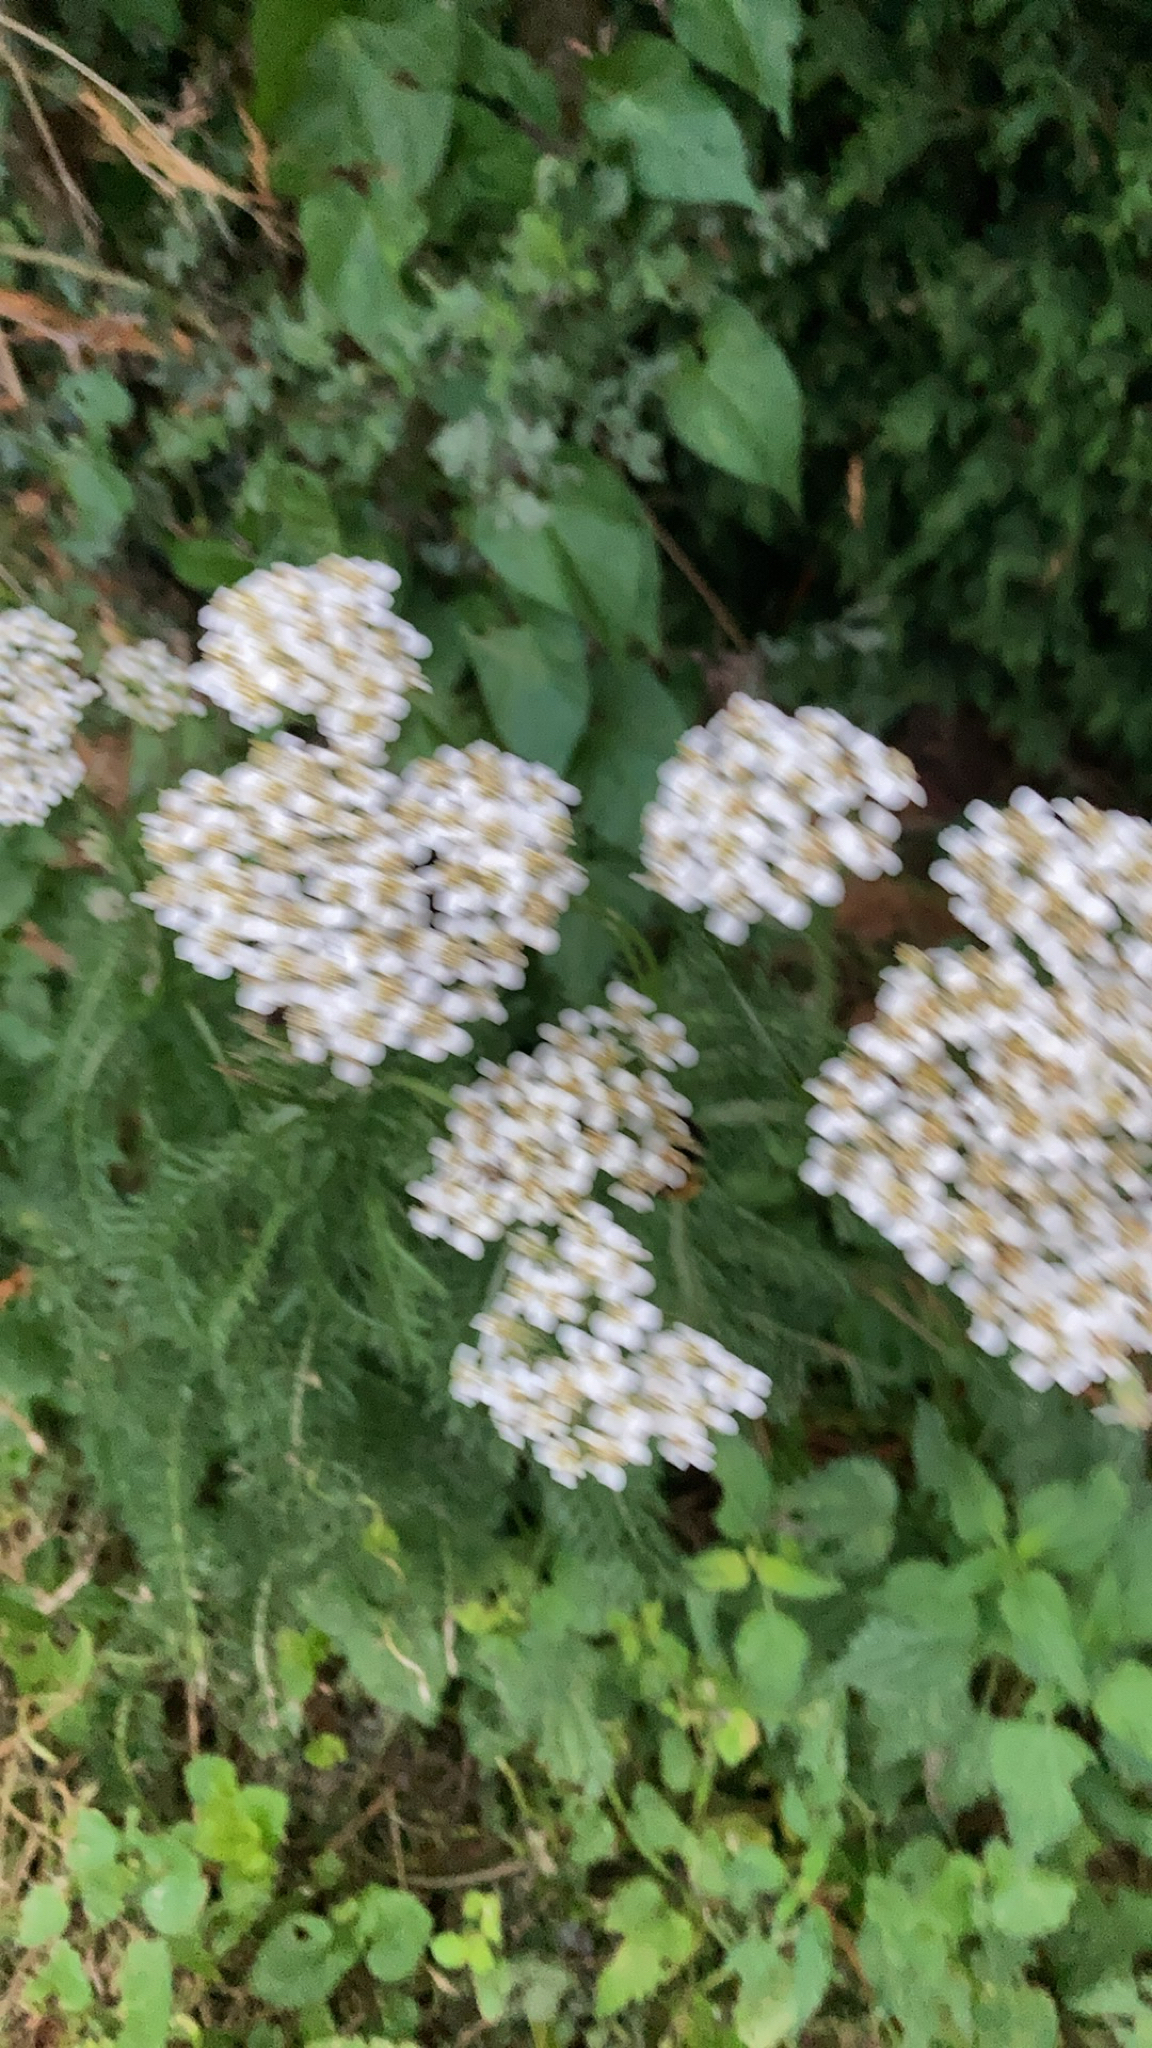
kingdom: Plantae
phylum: Tracheophyta
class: Magnoliopsida
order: Asterales
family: Asteraceae
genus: Achillea
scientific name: Achillea millefolium
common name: Yarrow
